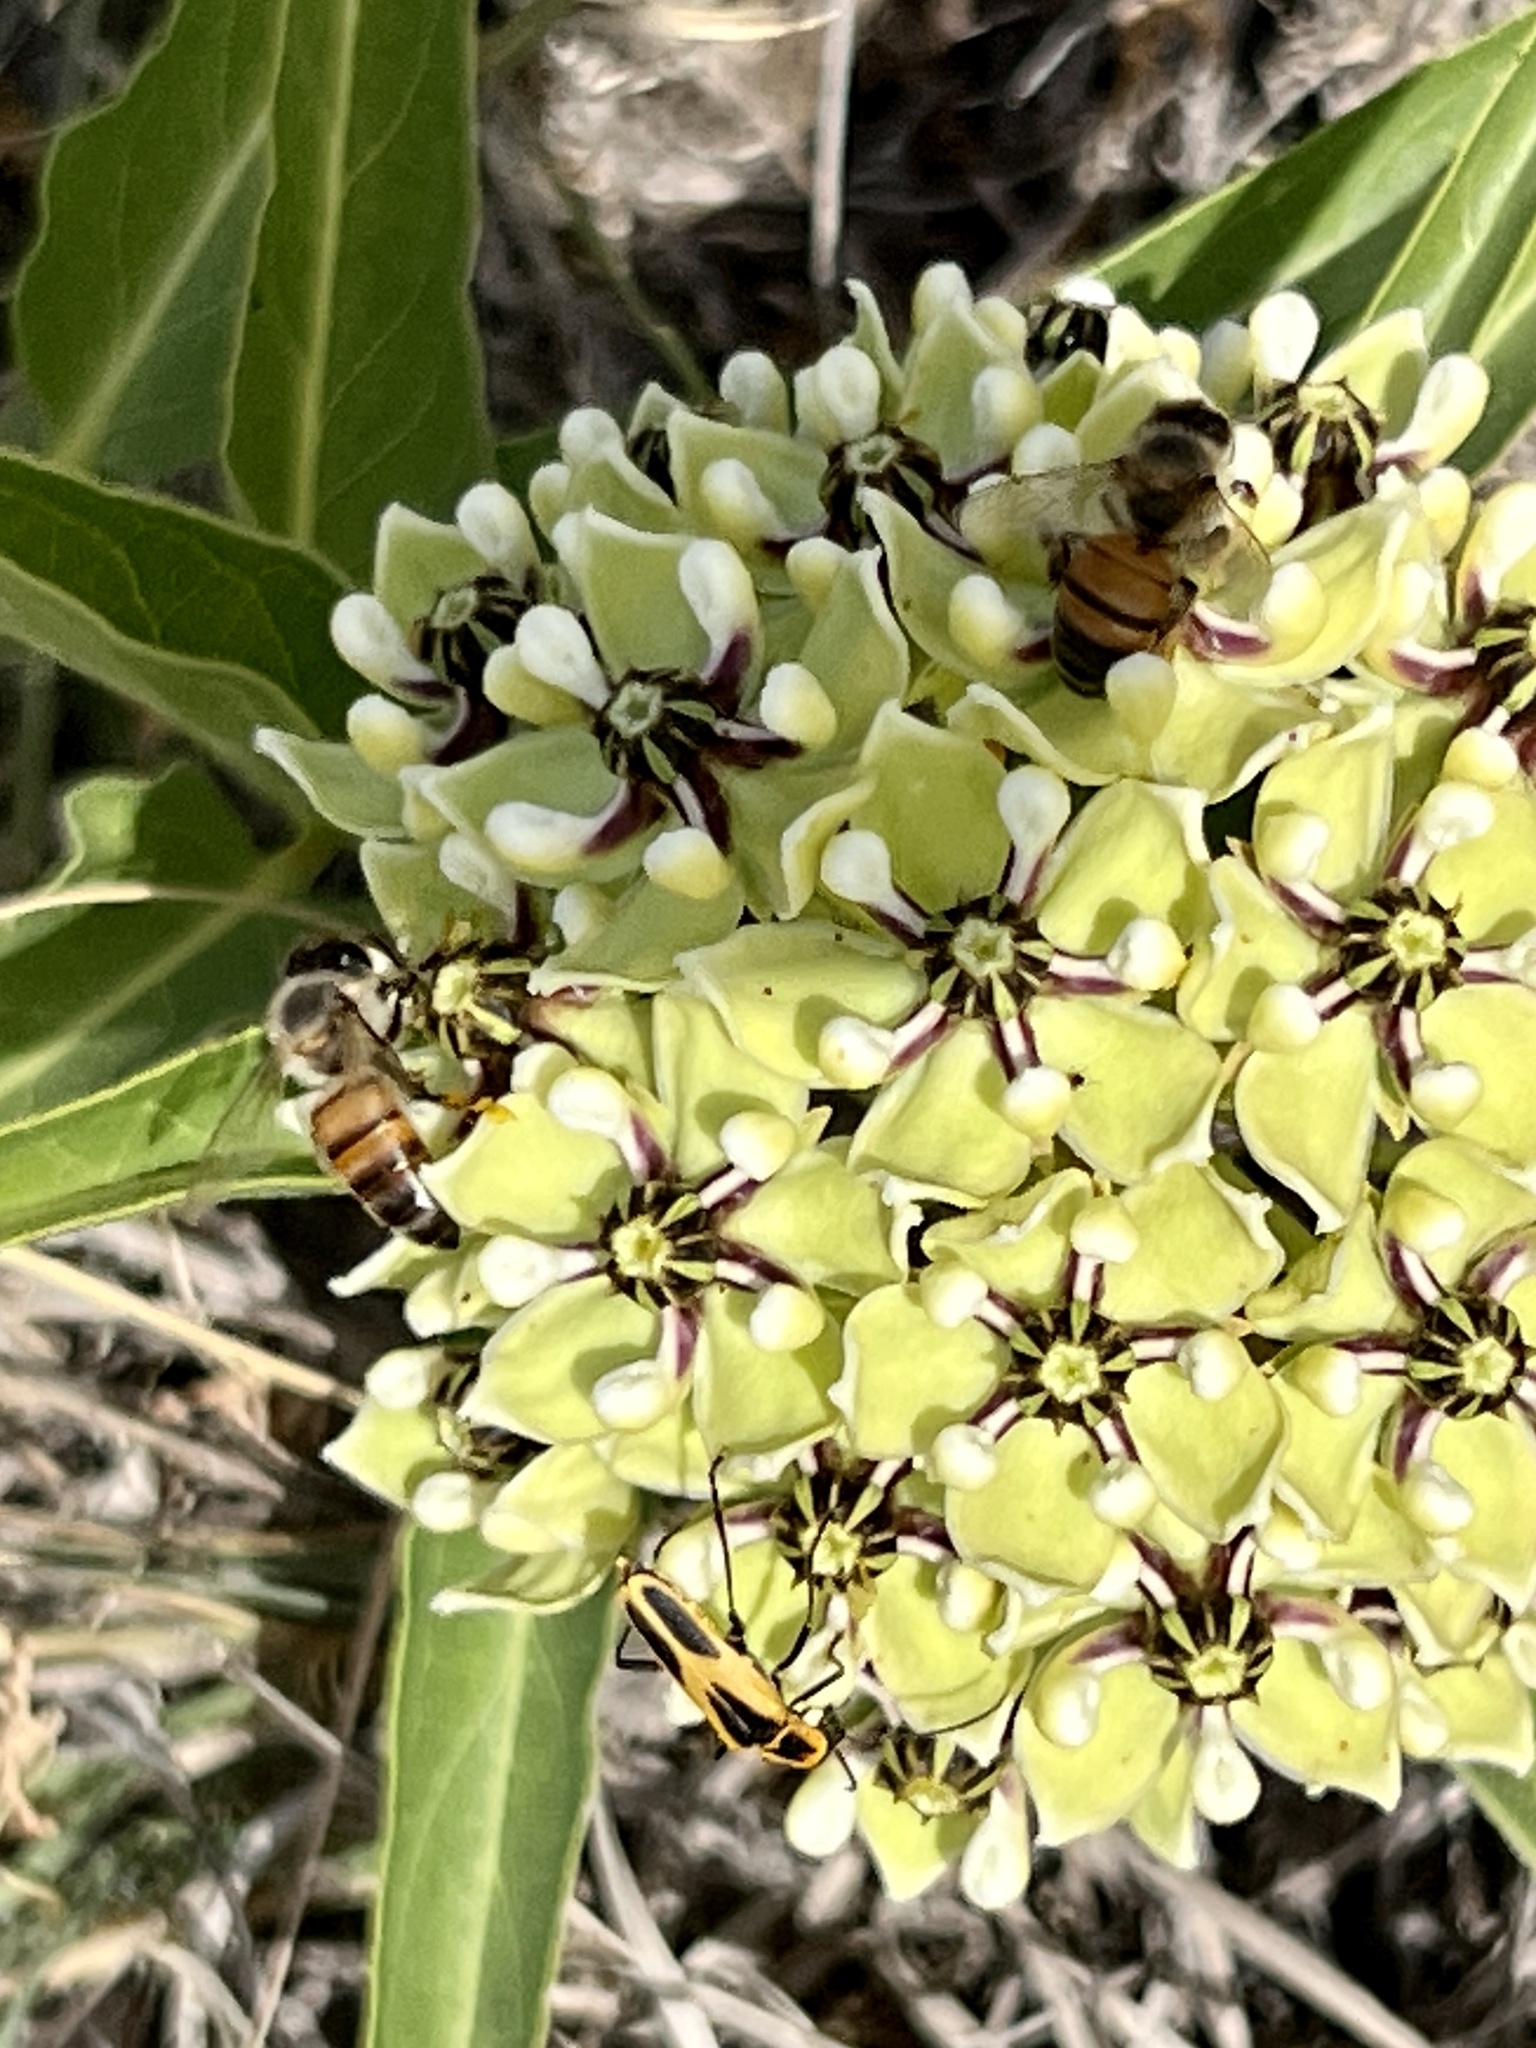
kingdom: Animalia
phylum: Arthropoda
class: Insecta
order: Hymenoptera
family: Apidae
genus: Apis
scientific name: Apis mellifera
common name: Honey bee
